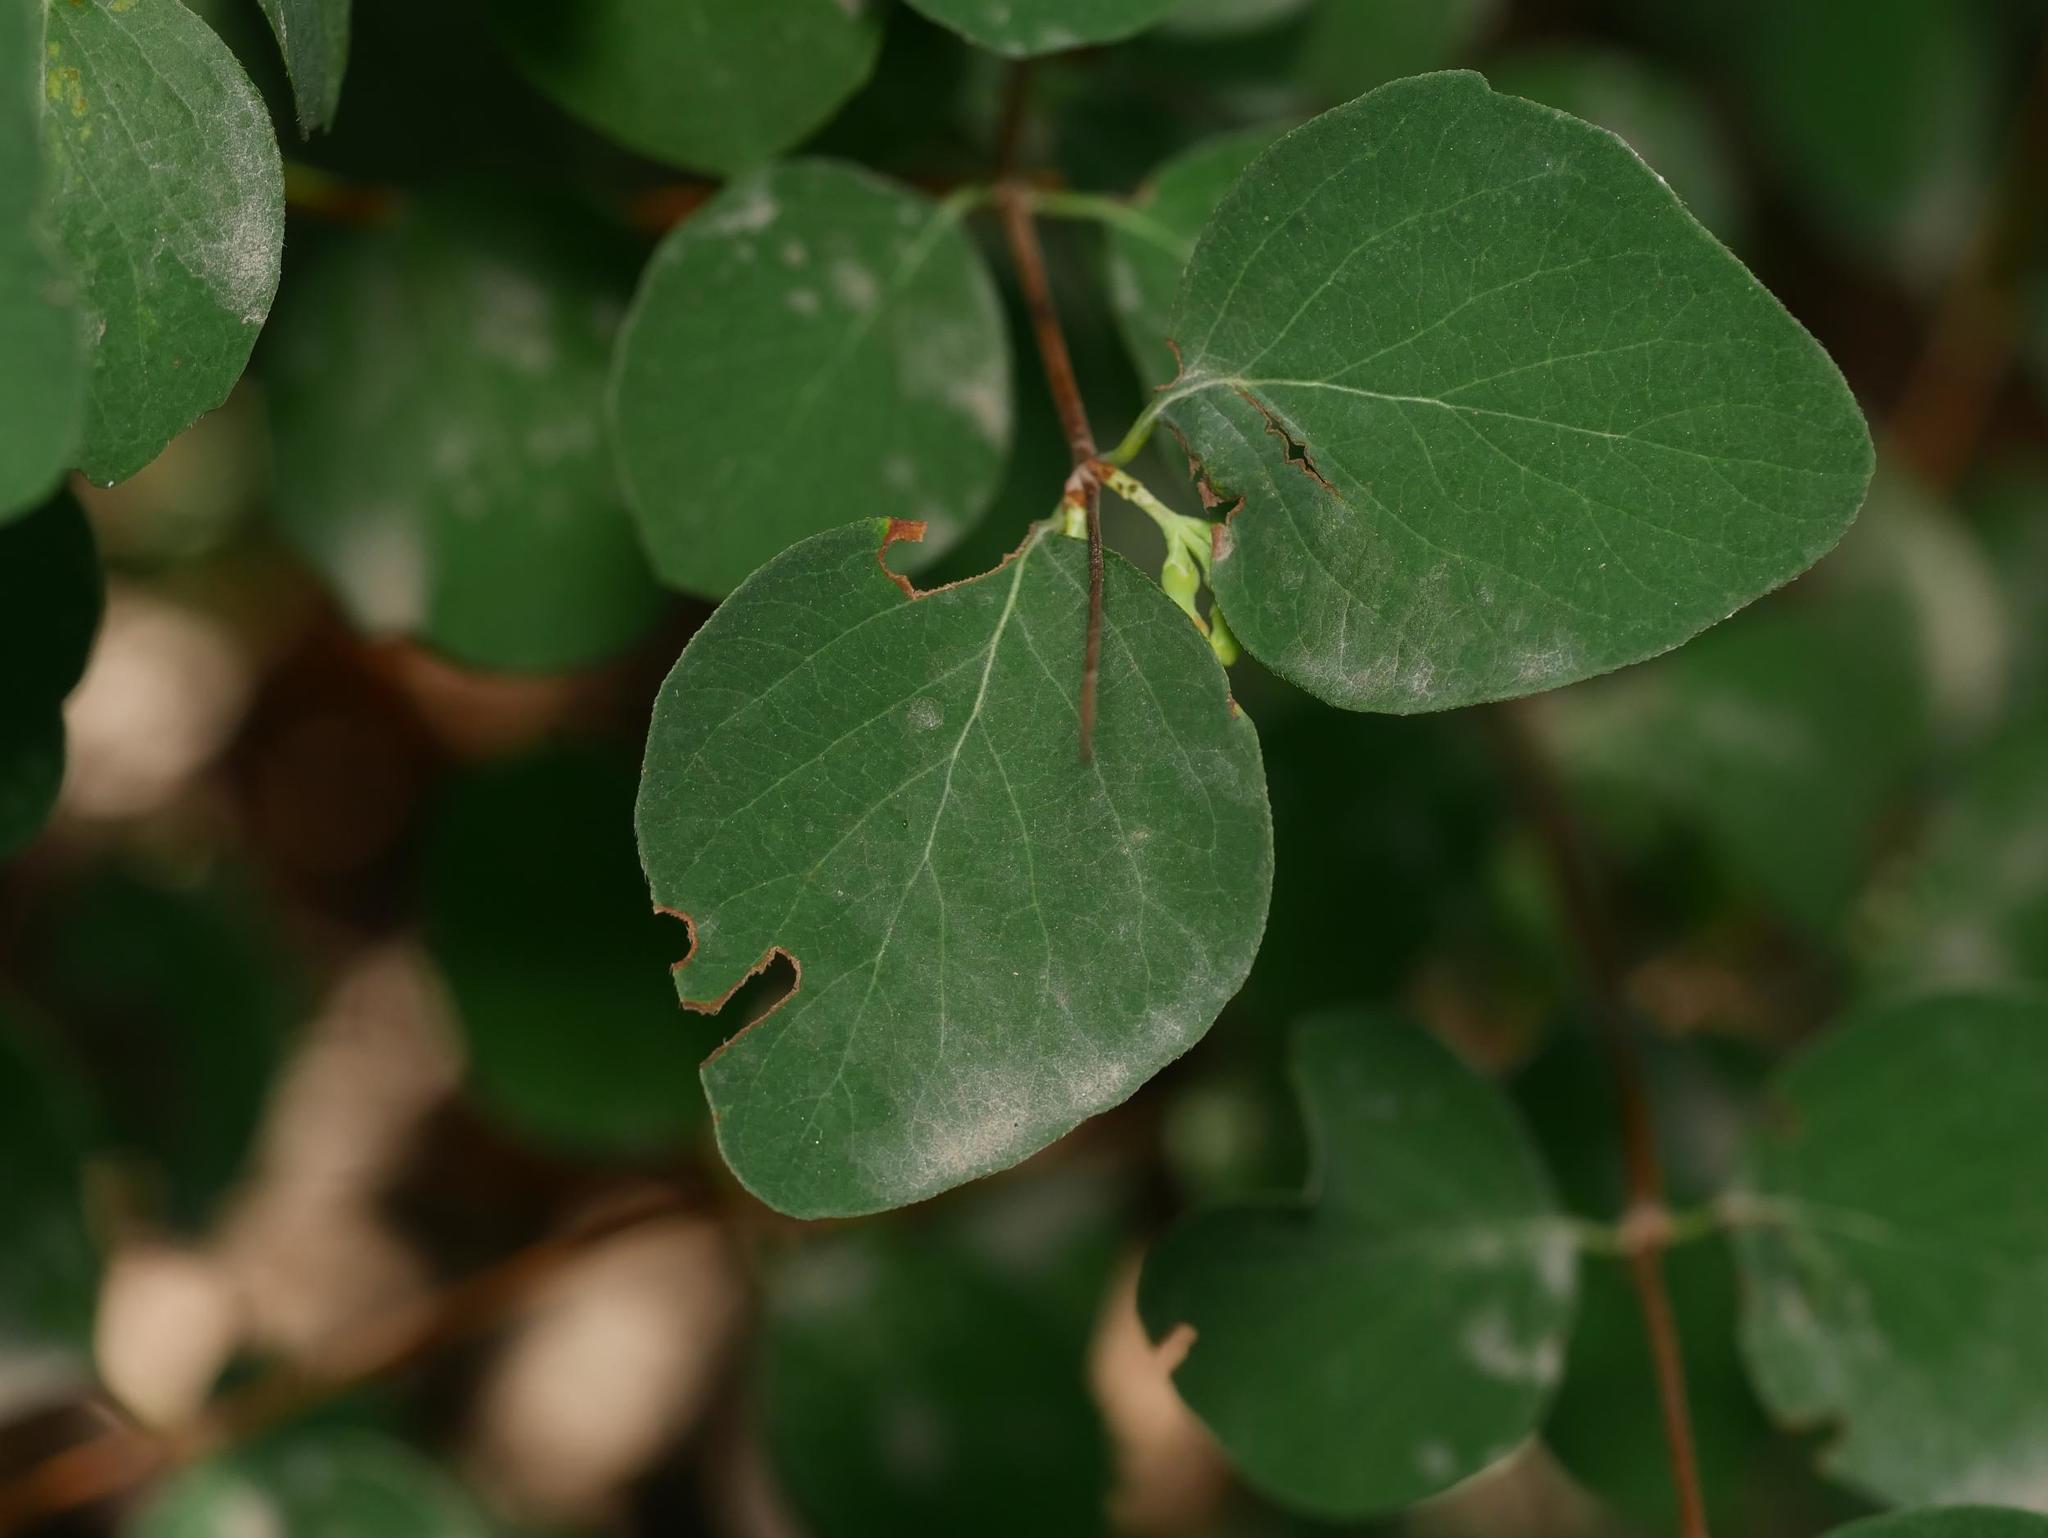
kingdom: Plantae
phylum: Tracheophyta
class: Magnoliopsida
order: Dipsacales
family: Caprifoliaceae
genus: Symphoricarpos
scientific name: Symphoricarpos albus
